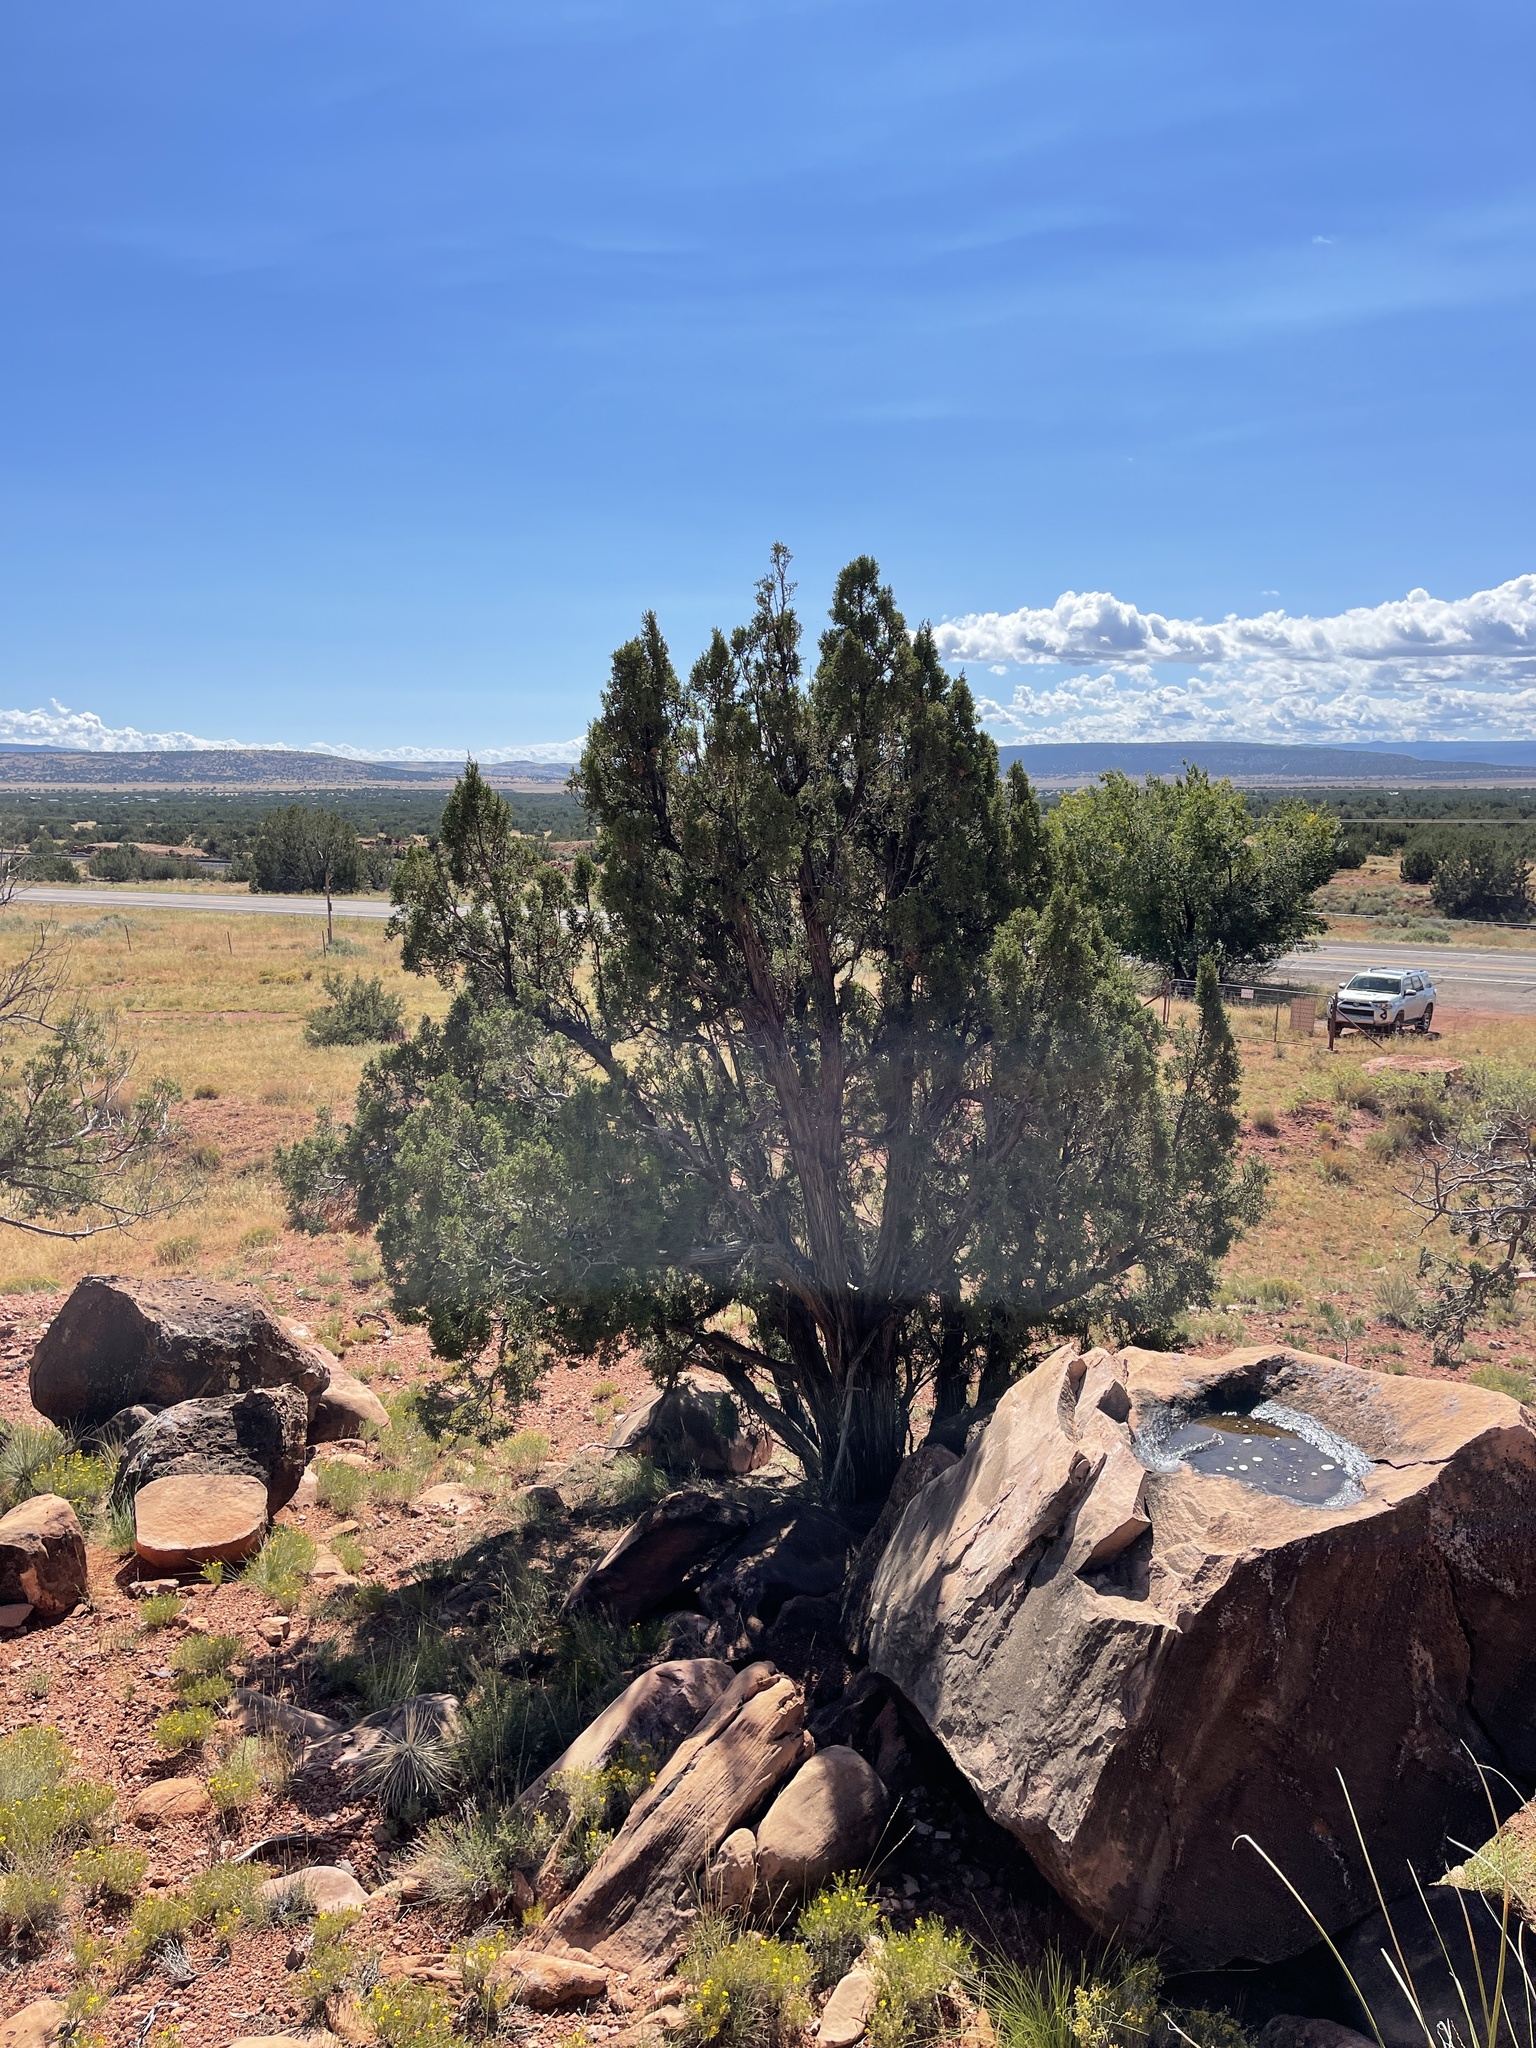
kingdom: Plantae
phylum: Tracheophyta
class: Pinopsida
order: Pinales
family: Cupressaceae
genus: Juniperus
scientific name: Juniperus osteosperma
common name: Utah juniper
